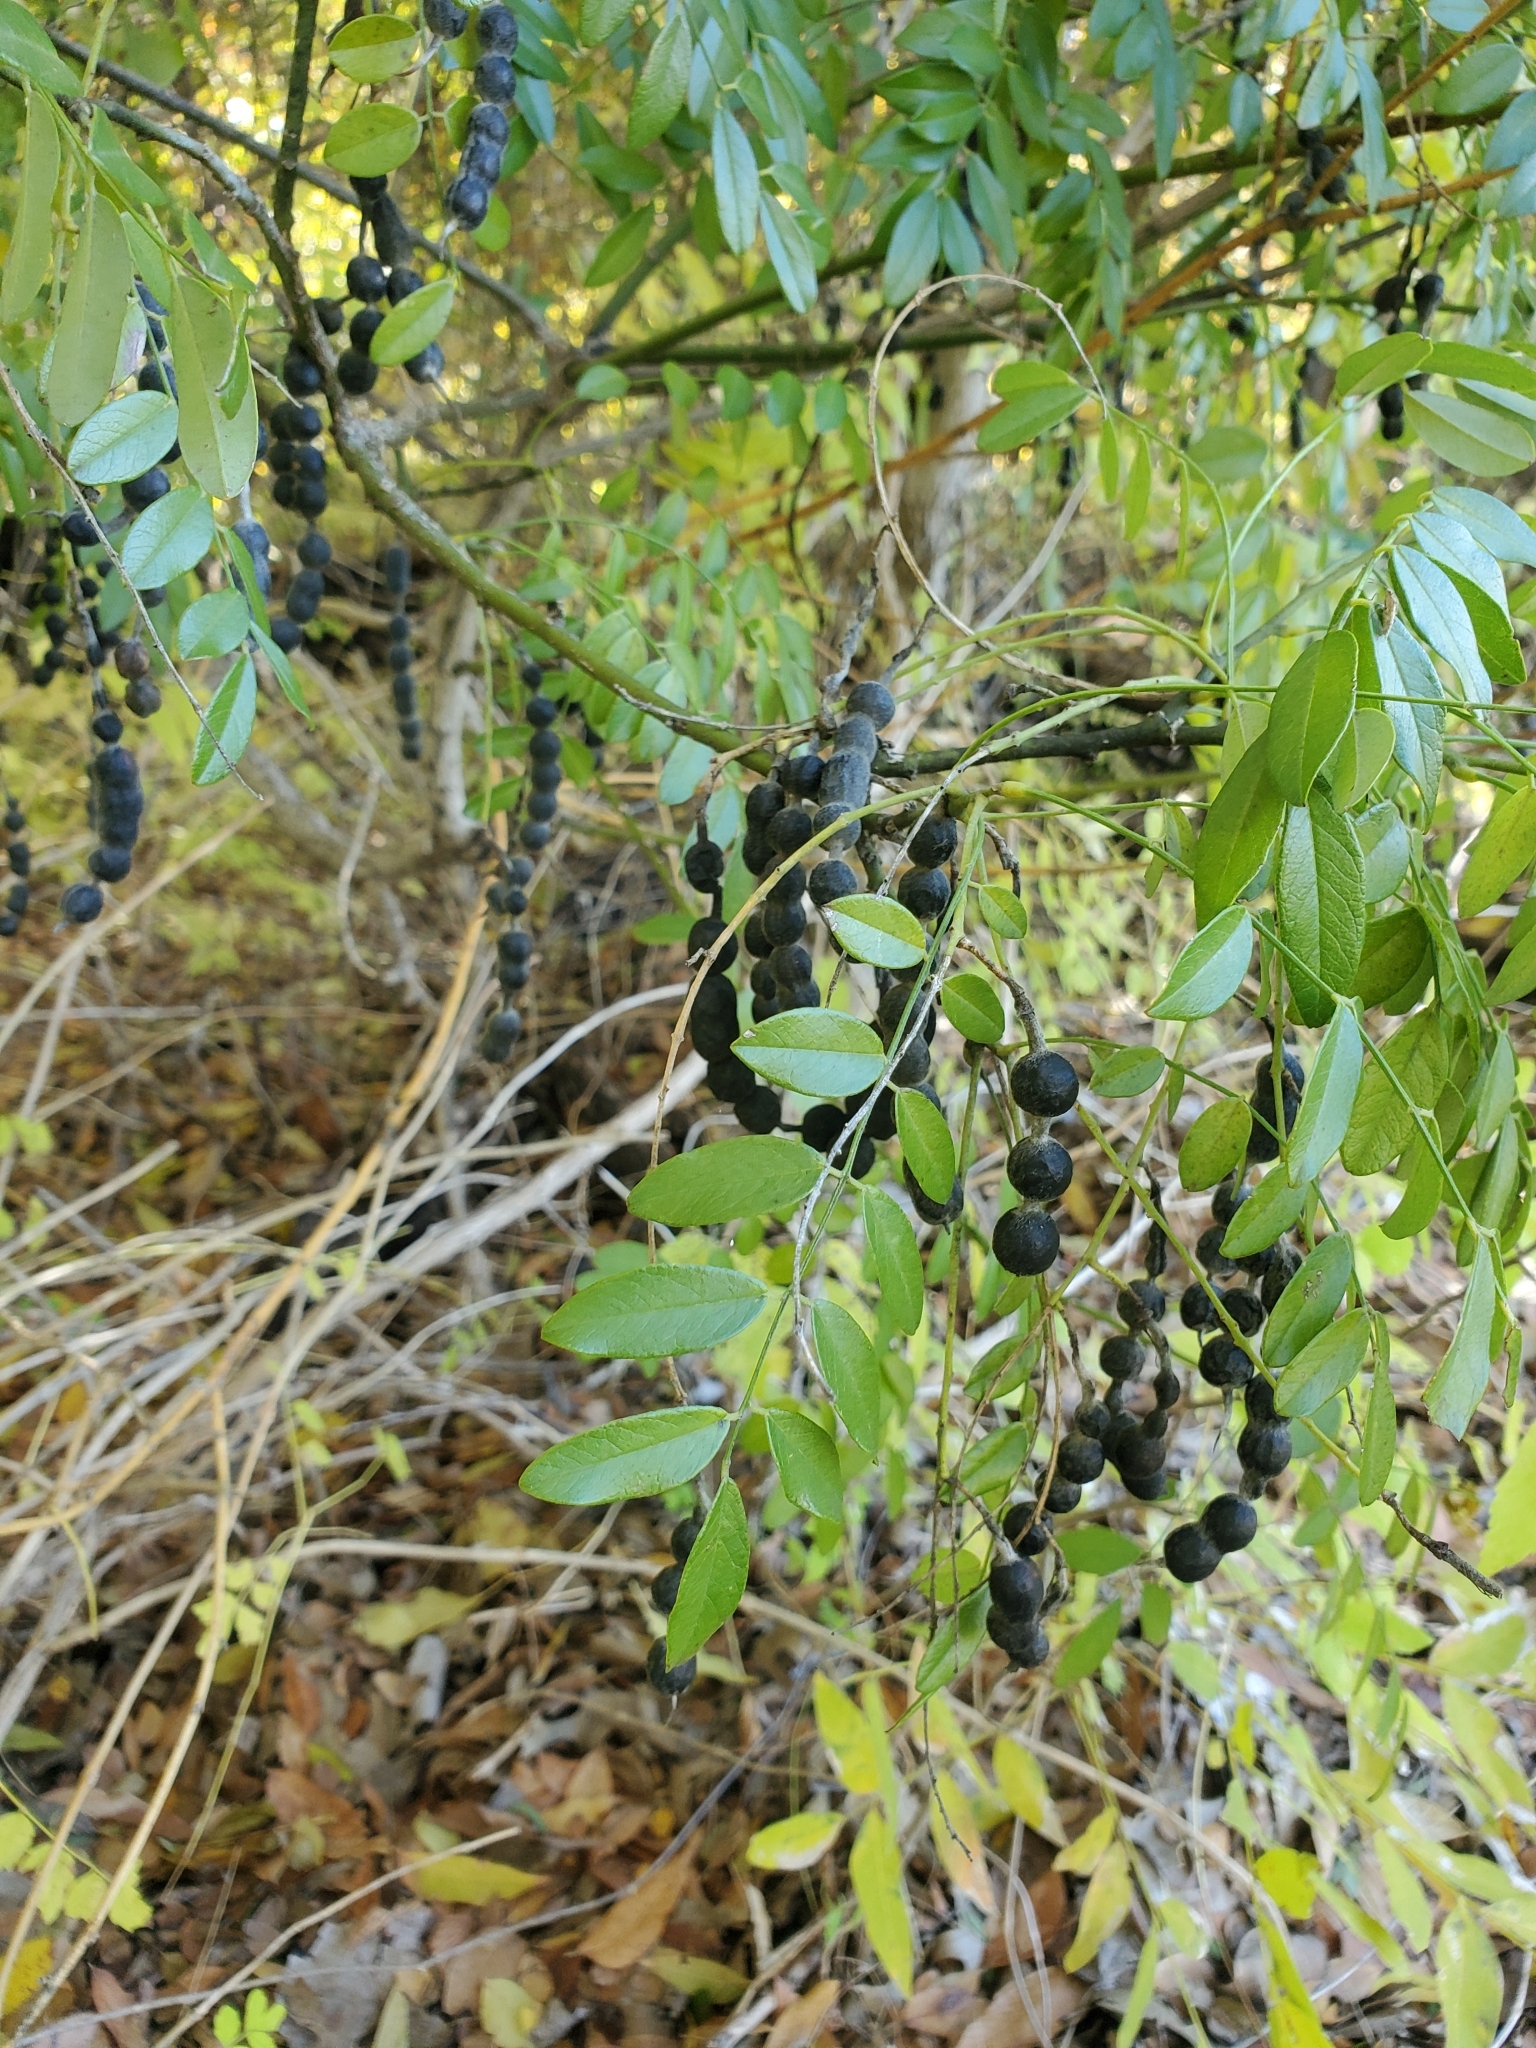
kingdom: Plantae
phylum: Tracheophyta
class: Magnoliopsida
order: Fabales
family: Fabaceae
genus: Styphnolobium
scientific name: Styphnolobium affine
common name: Texas sophora
